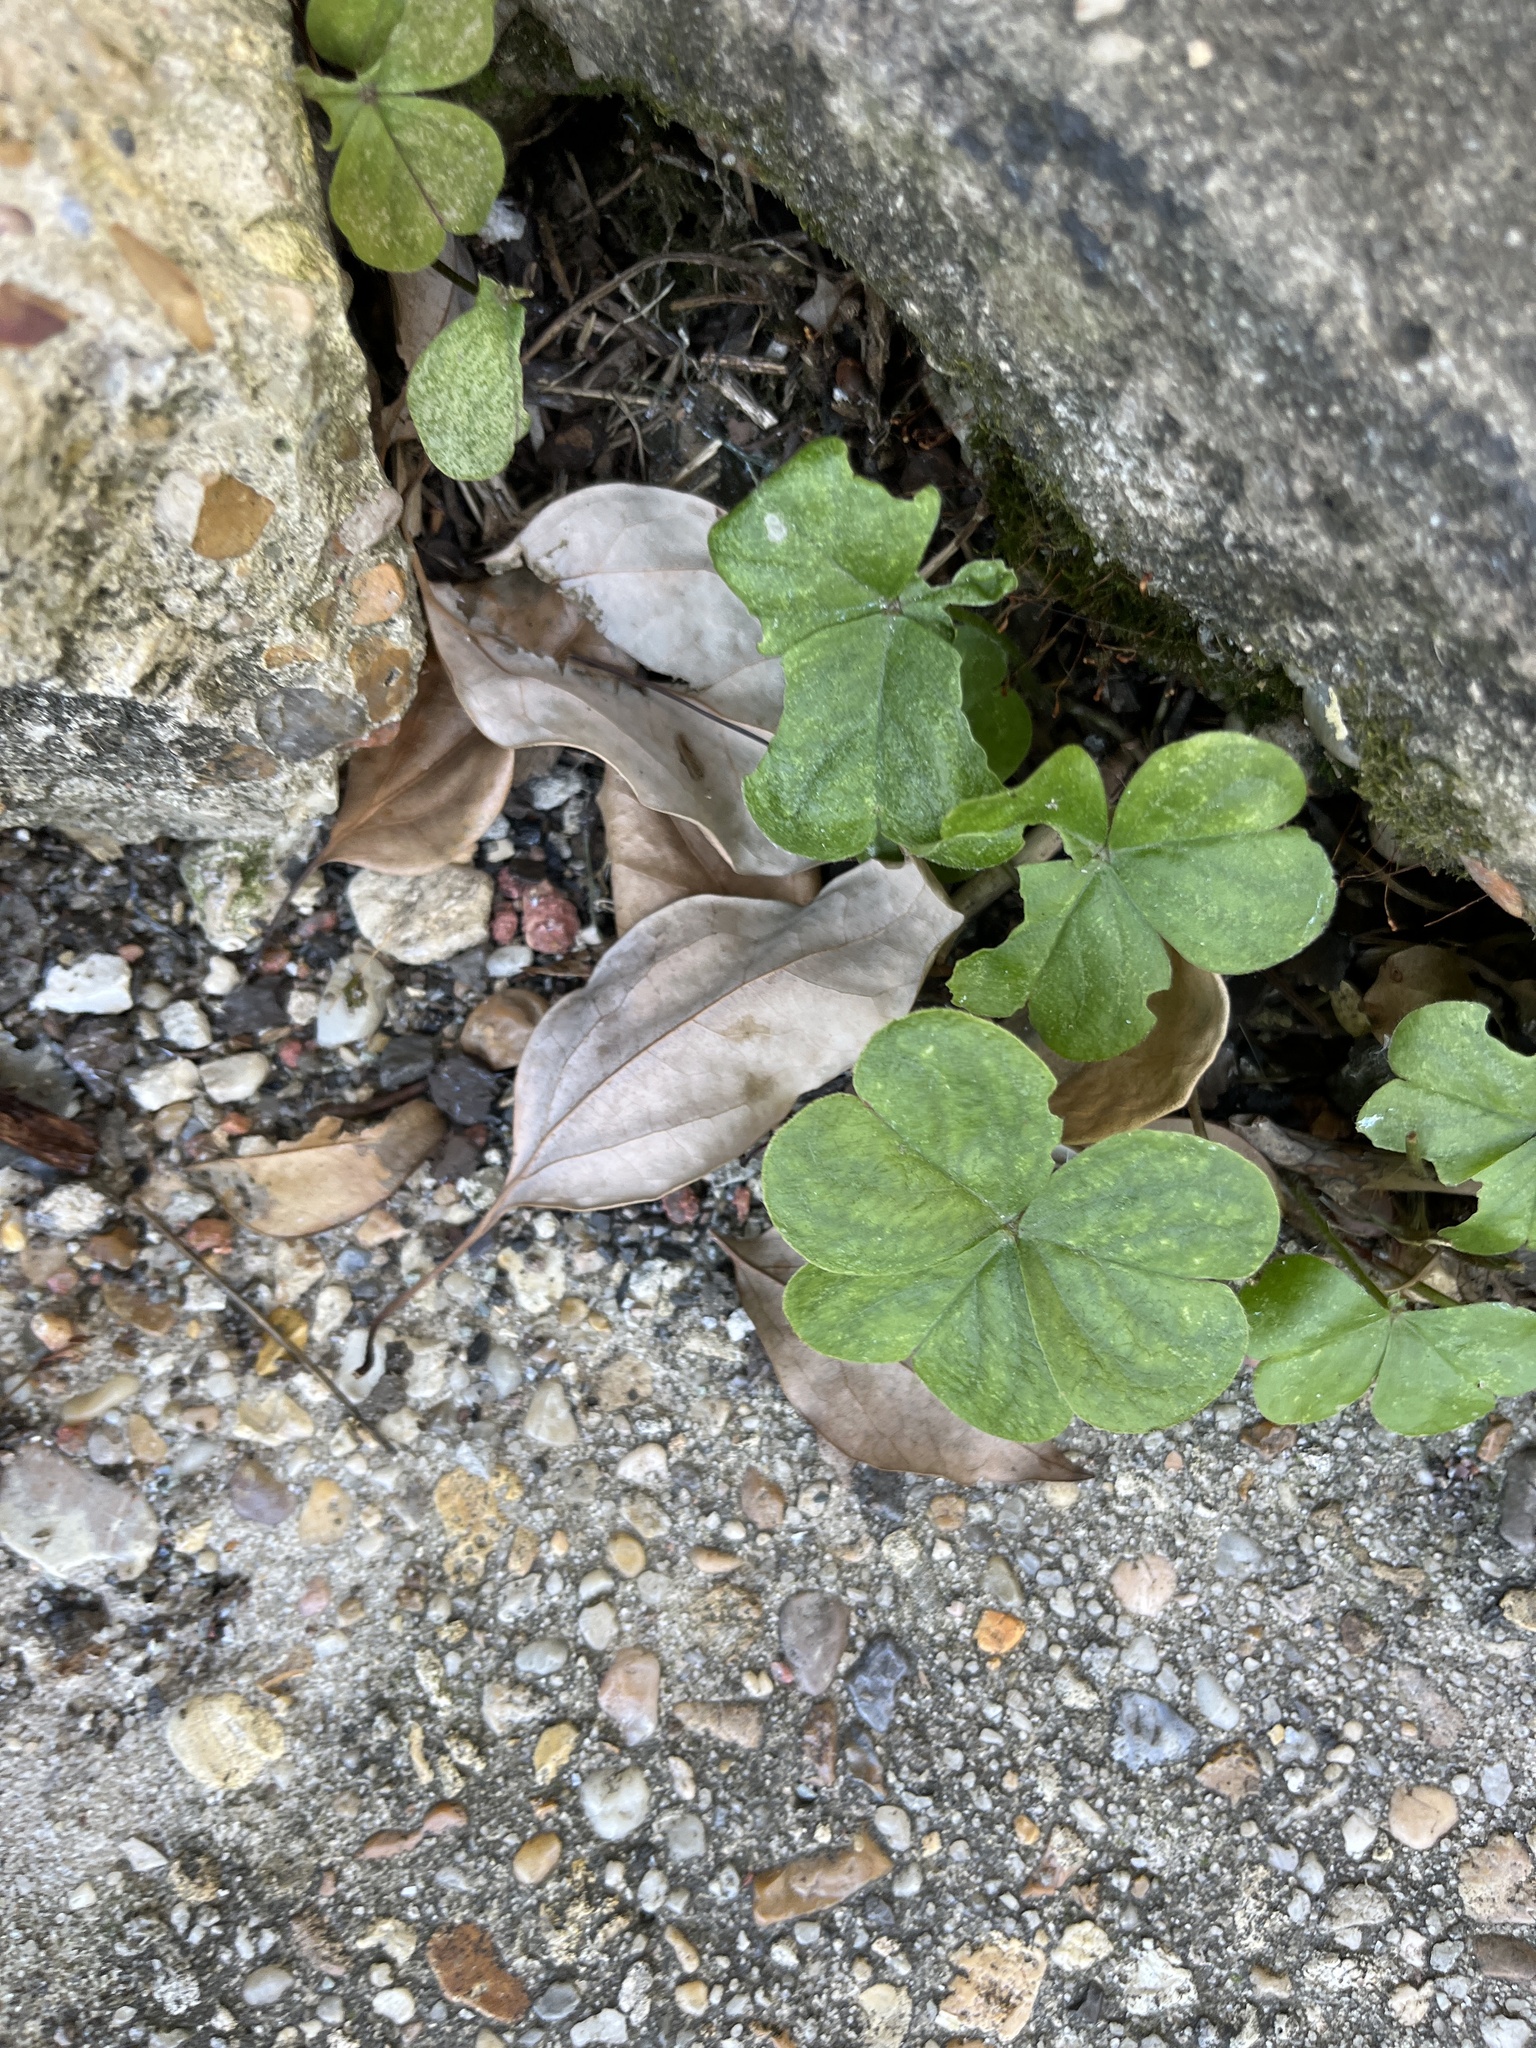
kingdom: Plantae
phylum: Tracheophyta
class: Magnoliopsida
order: Oxalidales
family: Oxalidaceae
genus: Oxalis
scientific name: Oxalis debilis
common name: Large-flowered pink-sorrel
